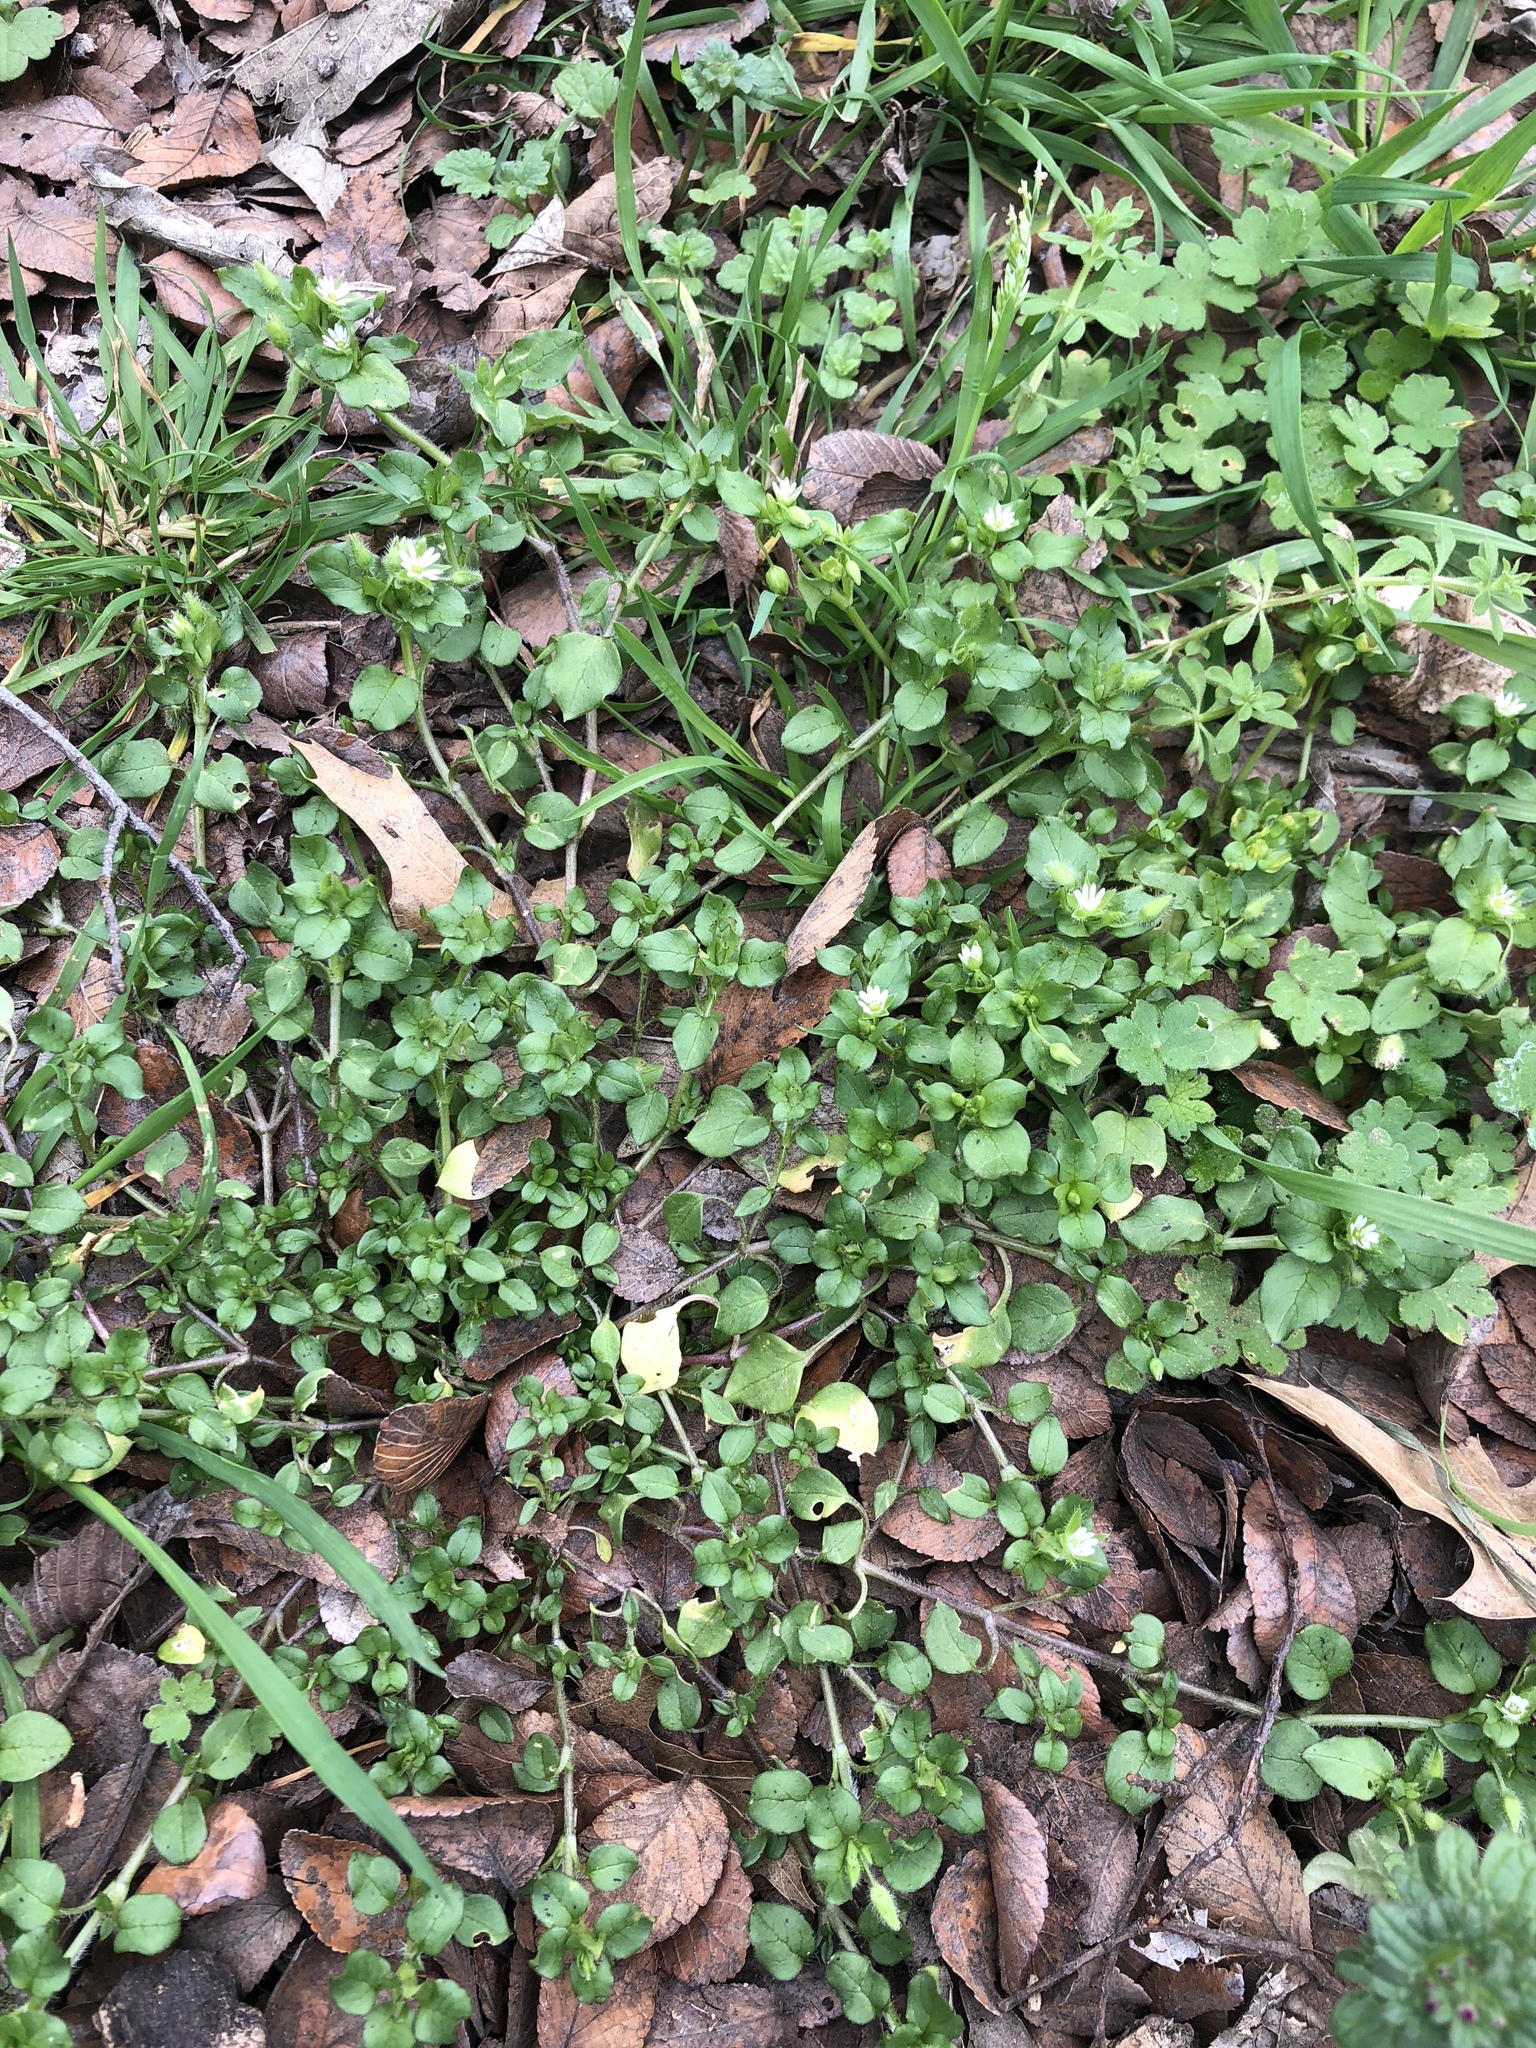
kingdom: Plantae
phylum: Tracheophyta
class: Magnoliopsida
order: Caryophyllales
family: Caryophyllaceae
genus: Stellaria
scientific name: Stellaria media
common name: Common chickweed
